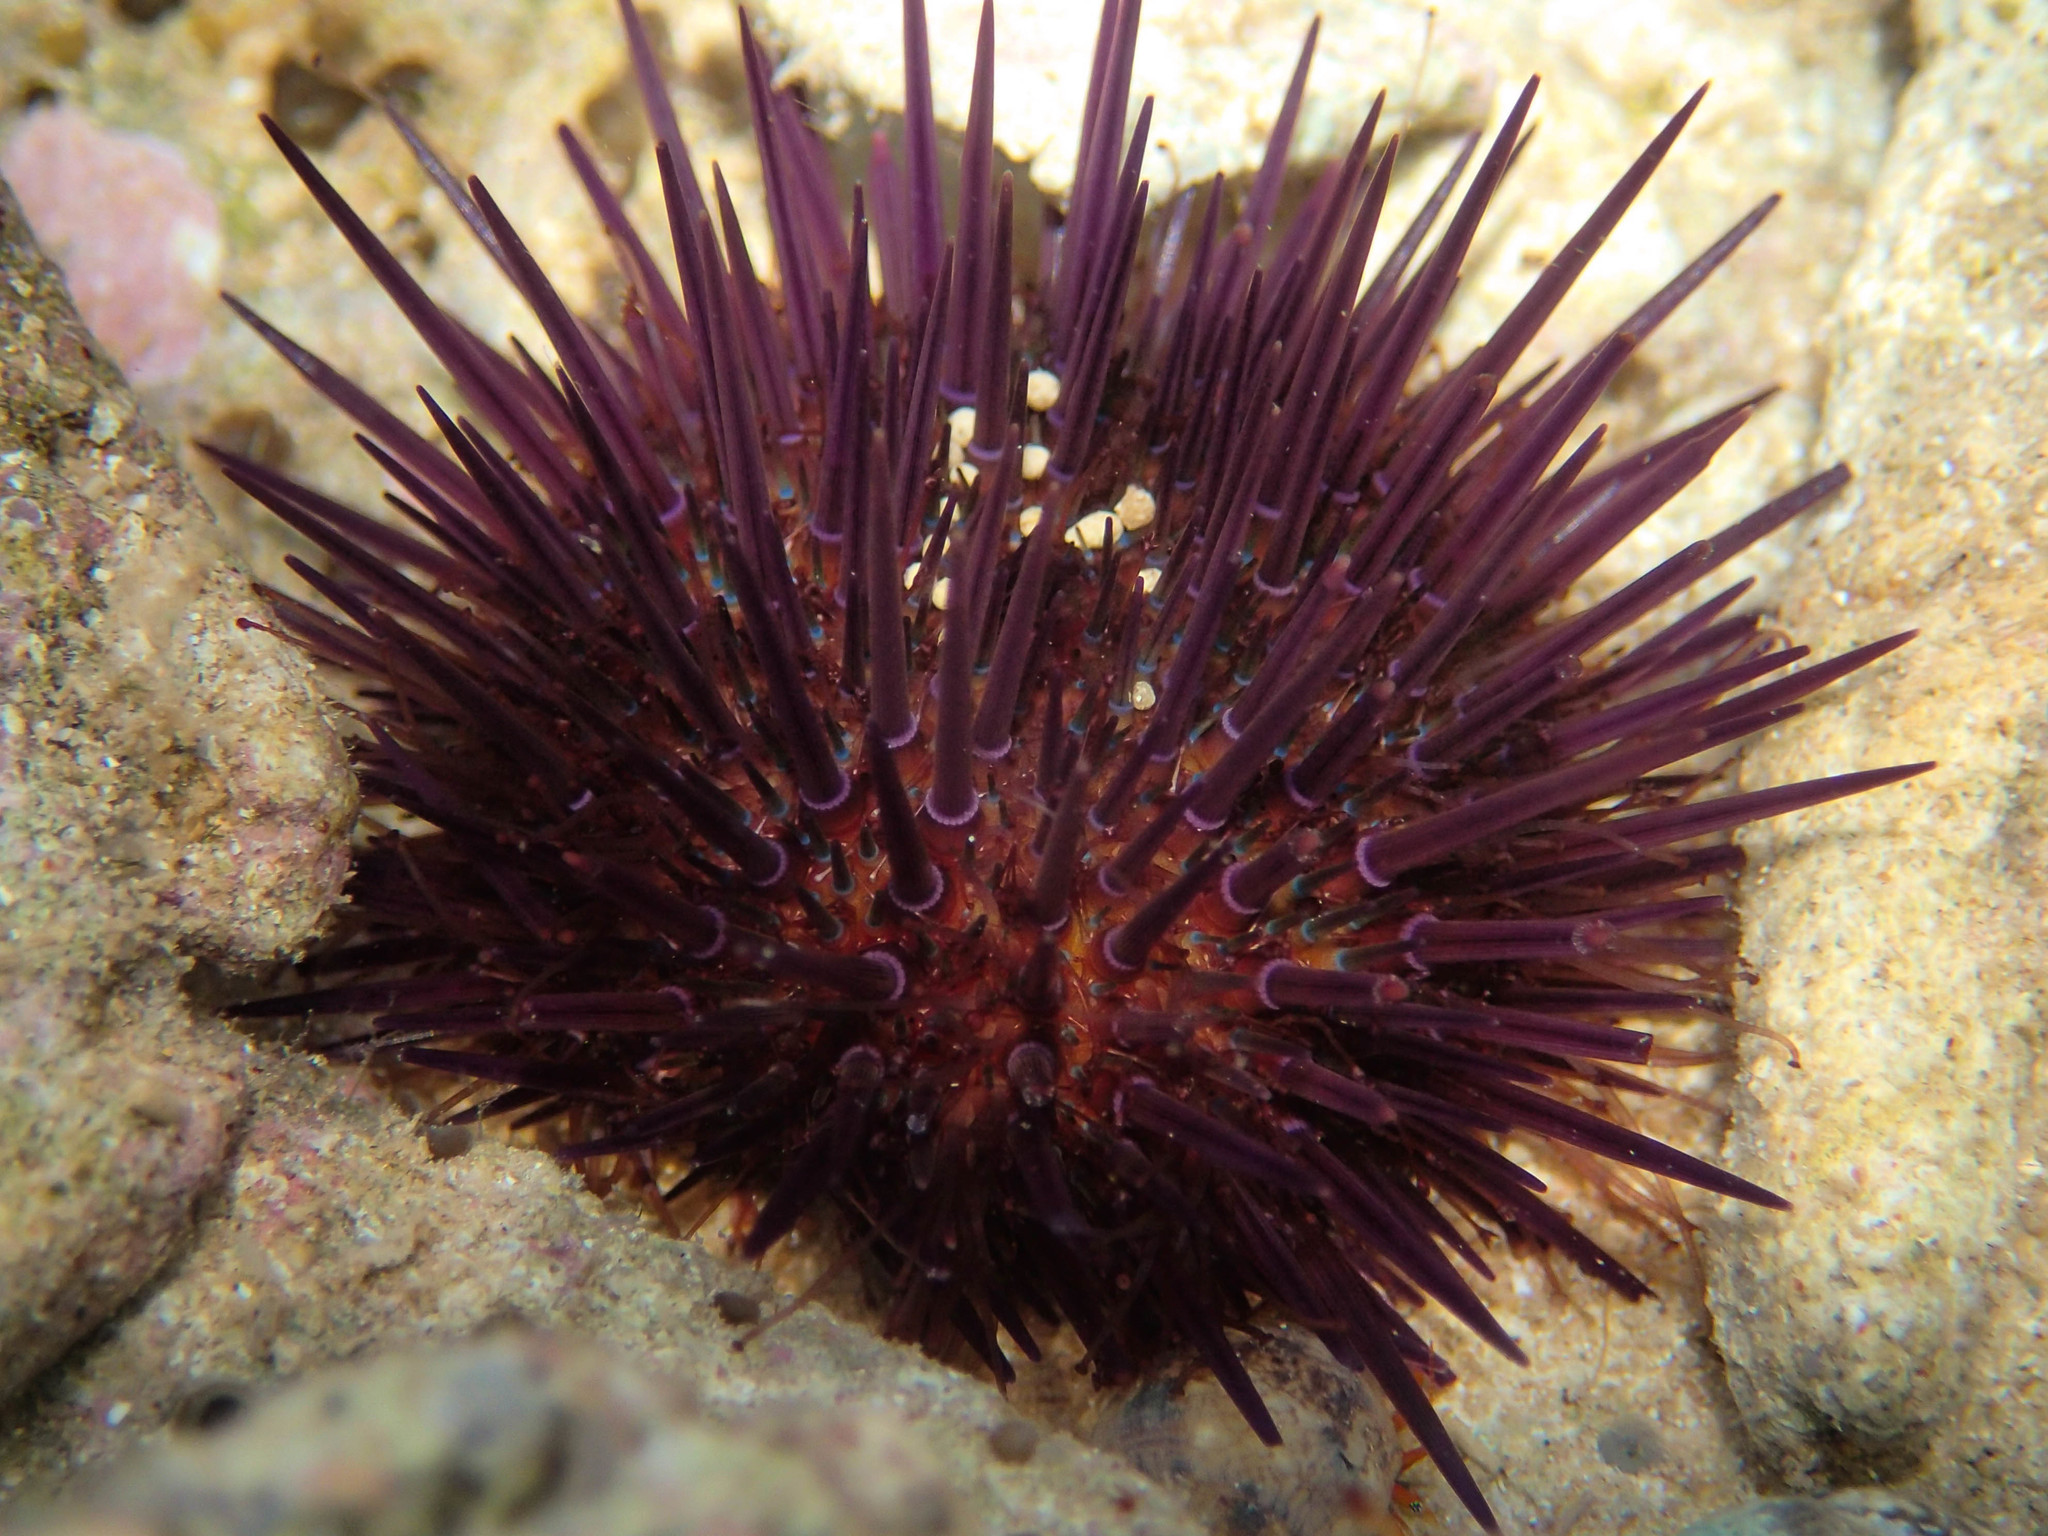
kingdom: Animalia
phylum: Echinodermata
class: Echinoidea
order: Camarodonta
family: Parechinidae
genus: Paracentrotus
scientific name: Paracentrotus lividus
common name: Purple sea urchin
